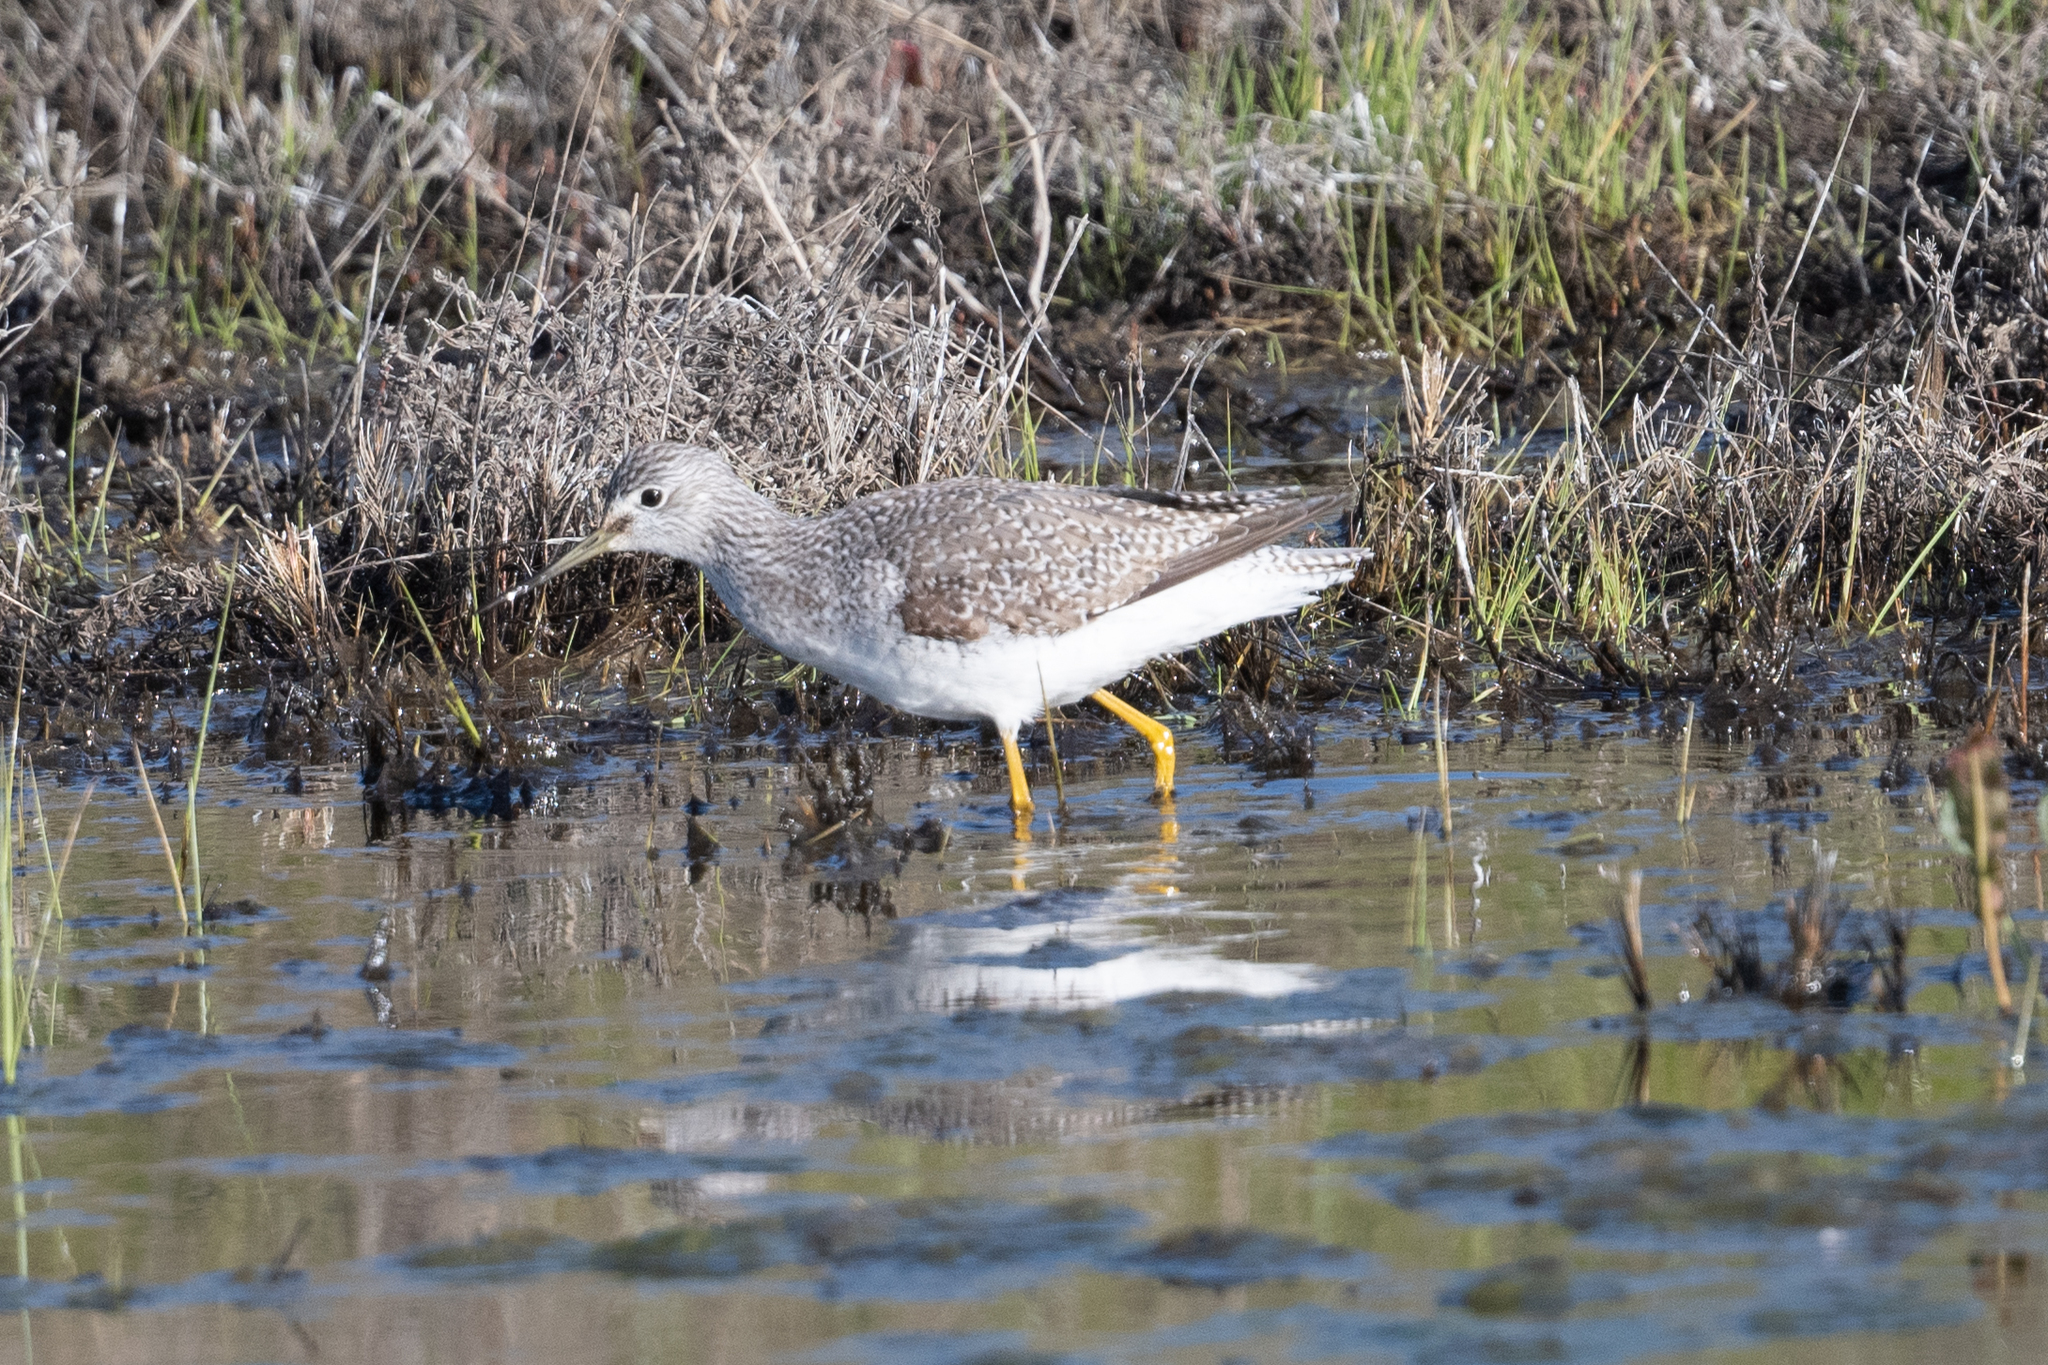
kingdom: Animalia
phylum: Chordata
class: Aves
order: Charadriiformes
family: Scolopacidae
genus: Tringa
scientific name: Tringa melanoleuca
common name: Greater yellowlegs
